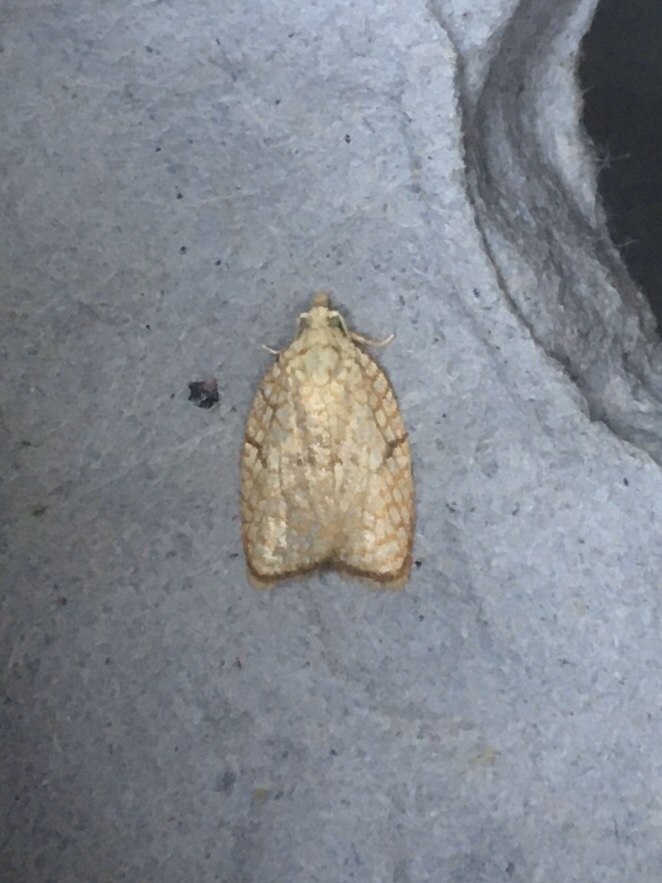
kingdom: Animalia
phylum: Arthropoda
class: Insecta
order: Lepidoptera
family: Tortricidae
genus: Acleris
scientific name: Acleris forsskaleana
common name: Maple button
